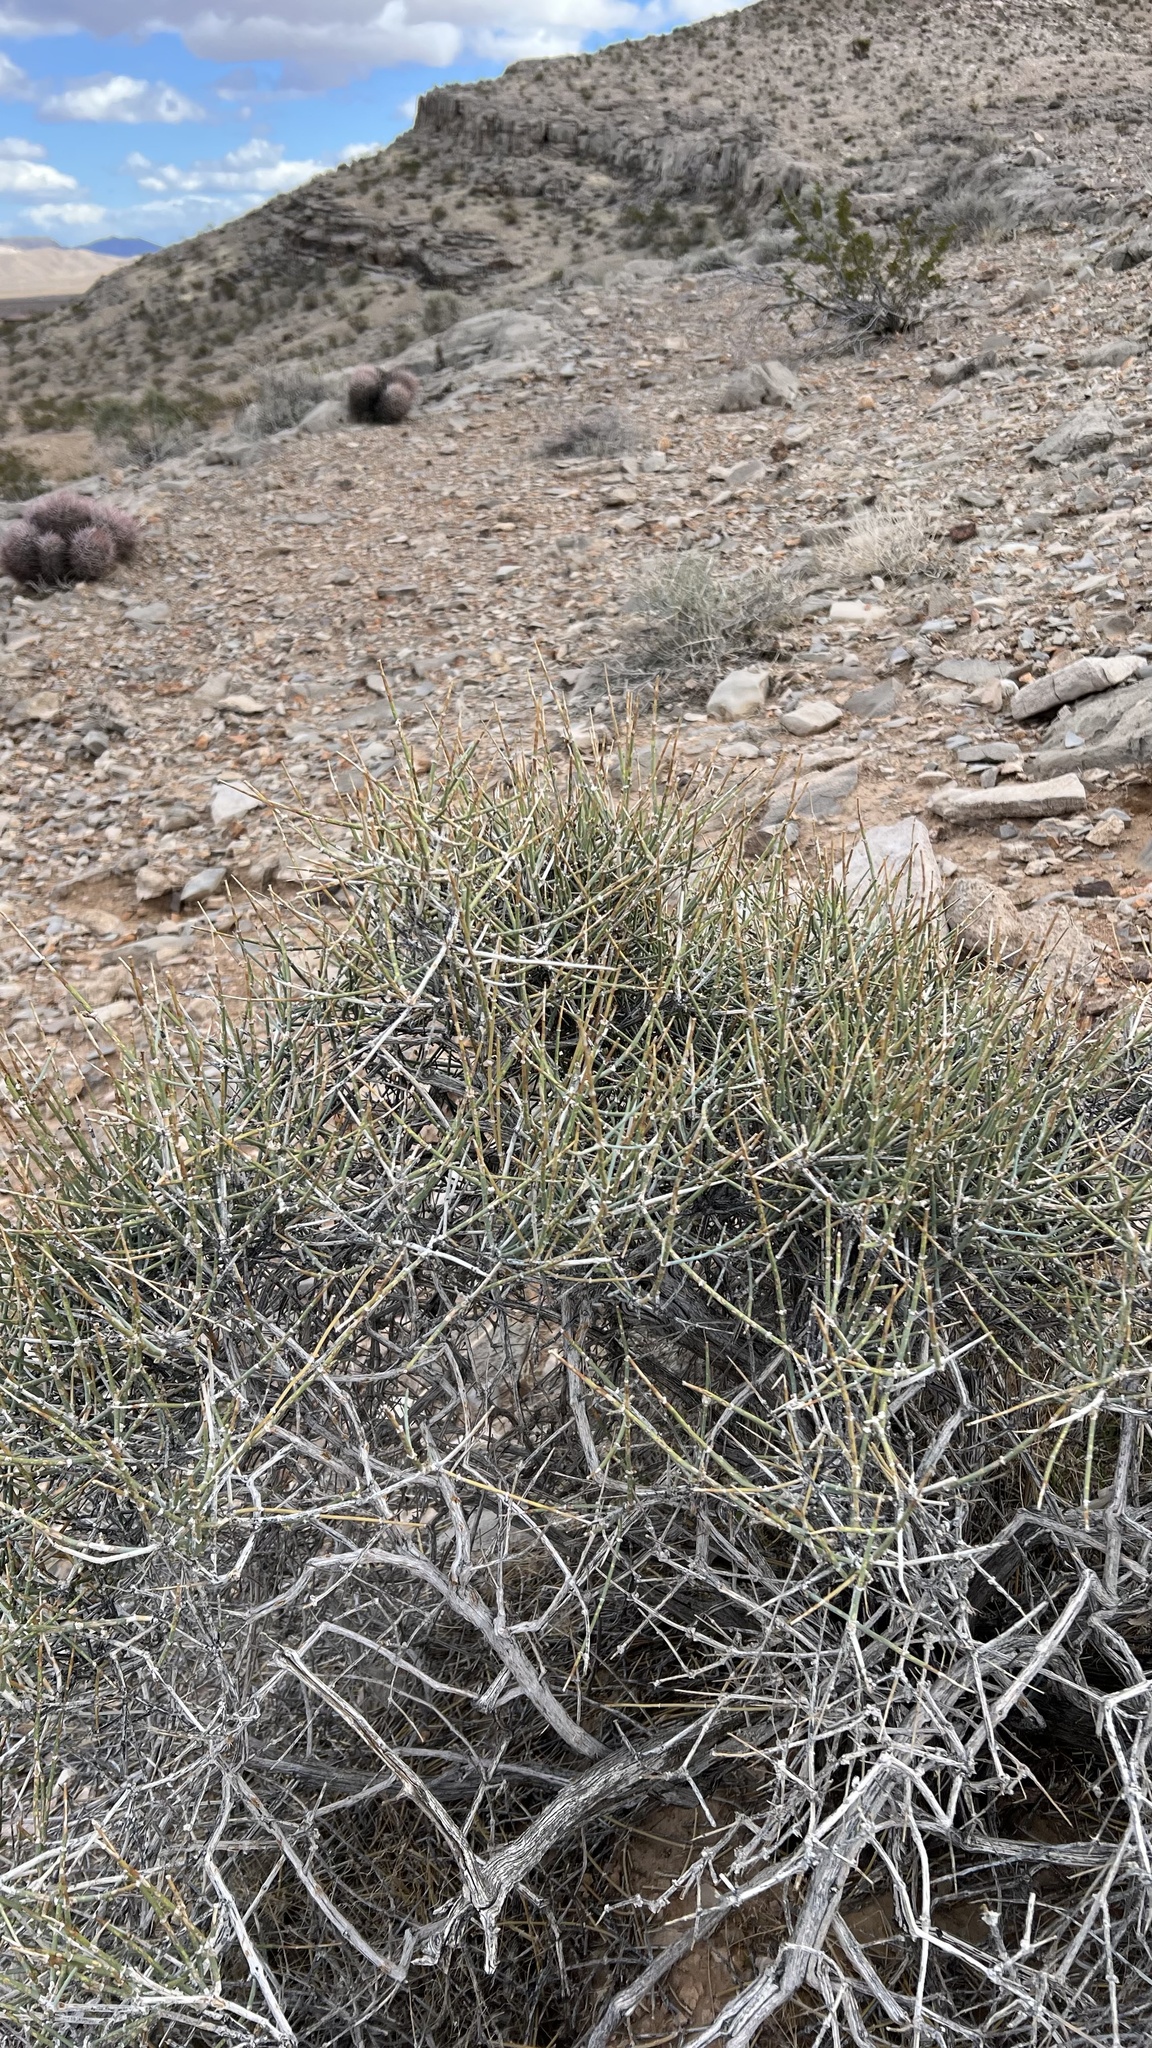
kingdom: Plantae
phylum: Tracheophyta
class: Gnetopsida
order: Ephedrales
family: Ephedraceae
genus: Ephedra
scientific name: Ephedra nevadensis
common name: Gray ephedra
